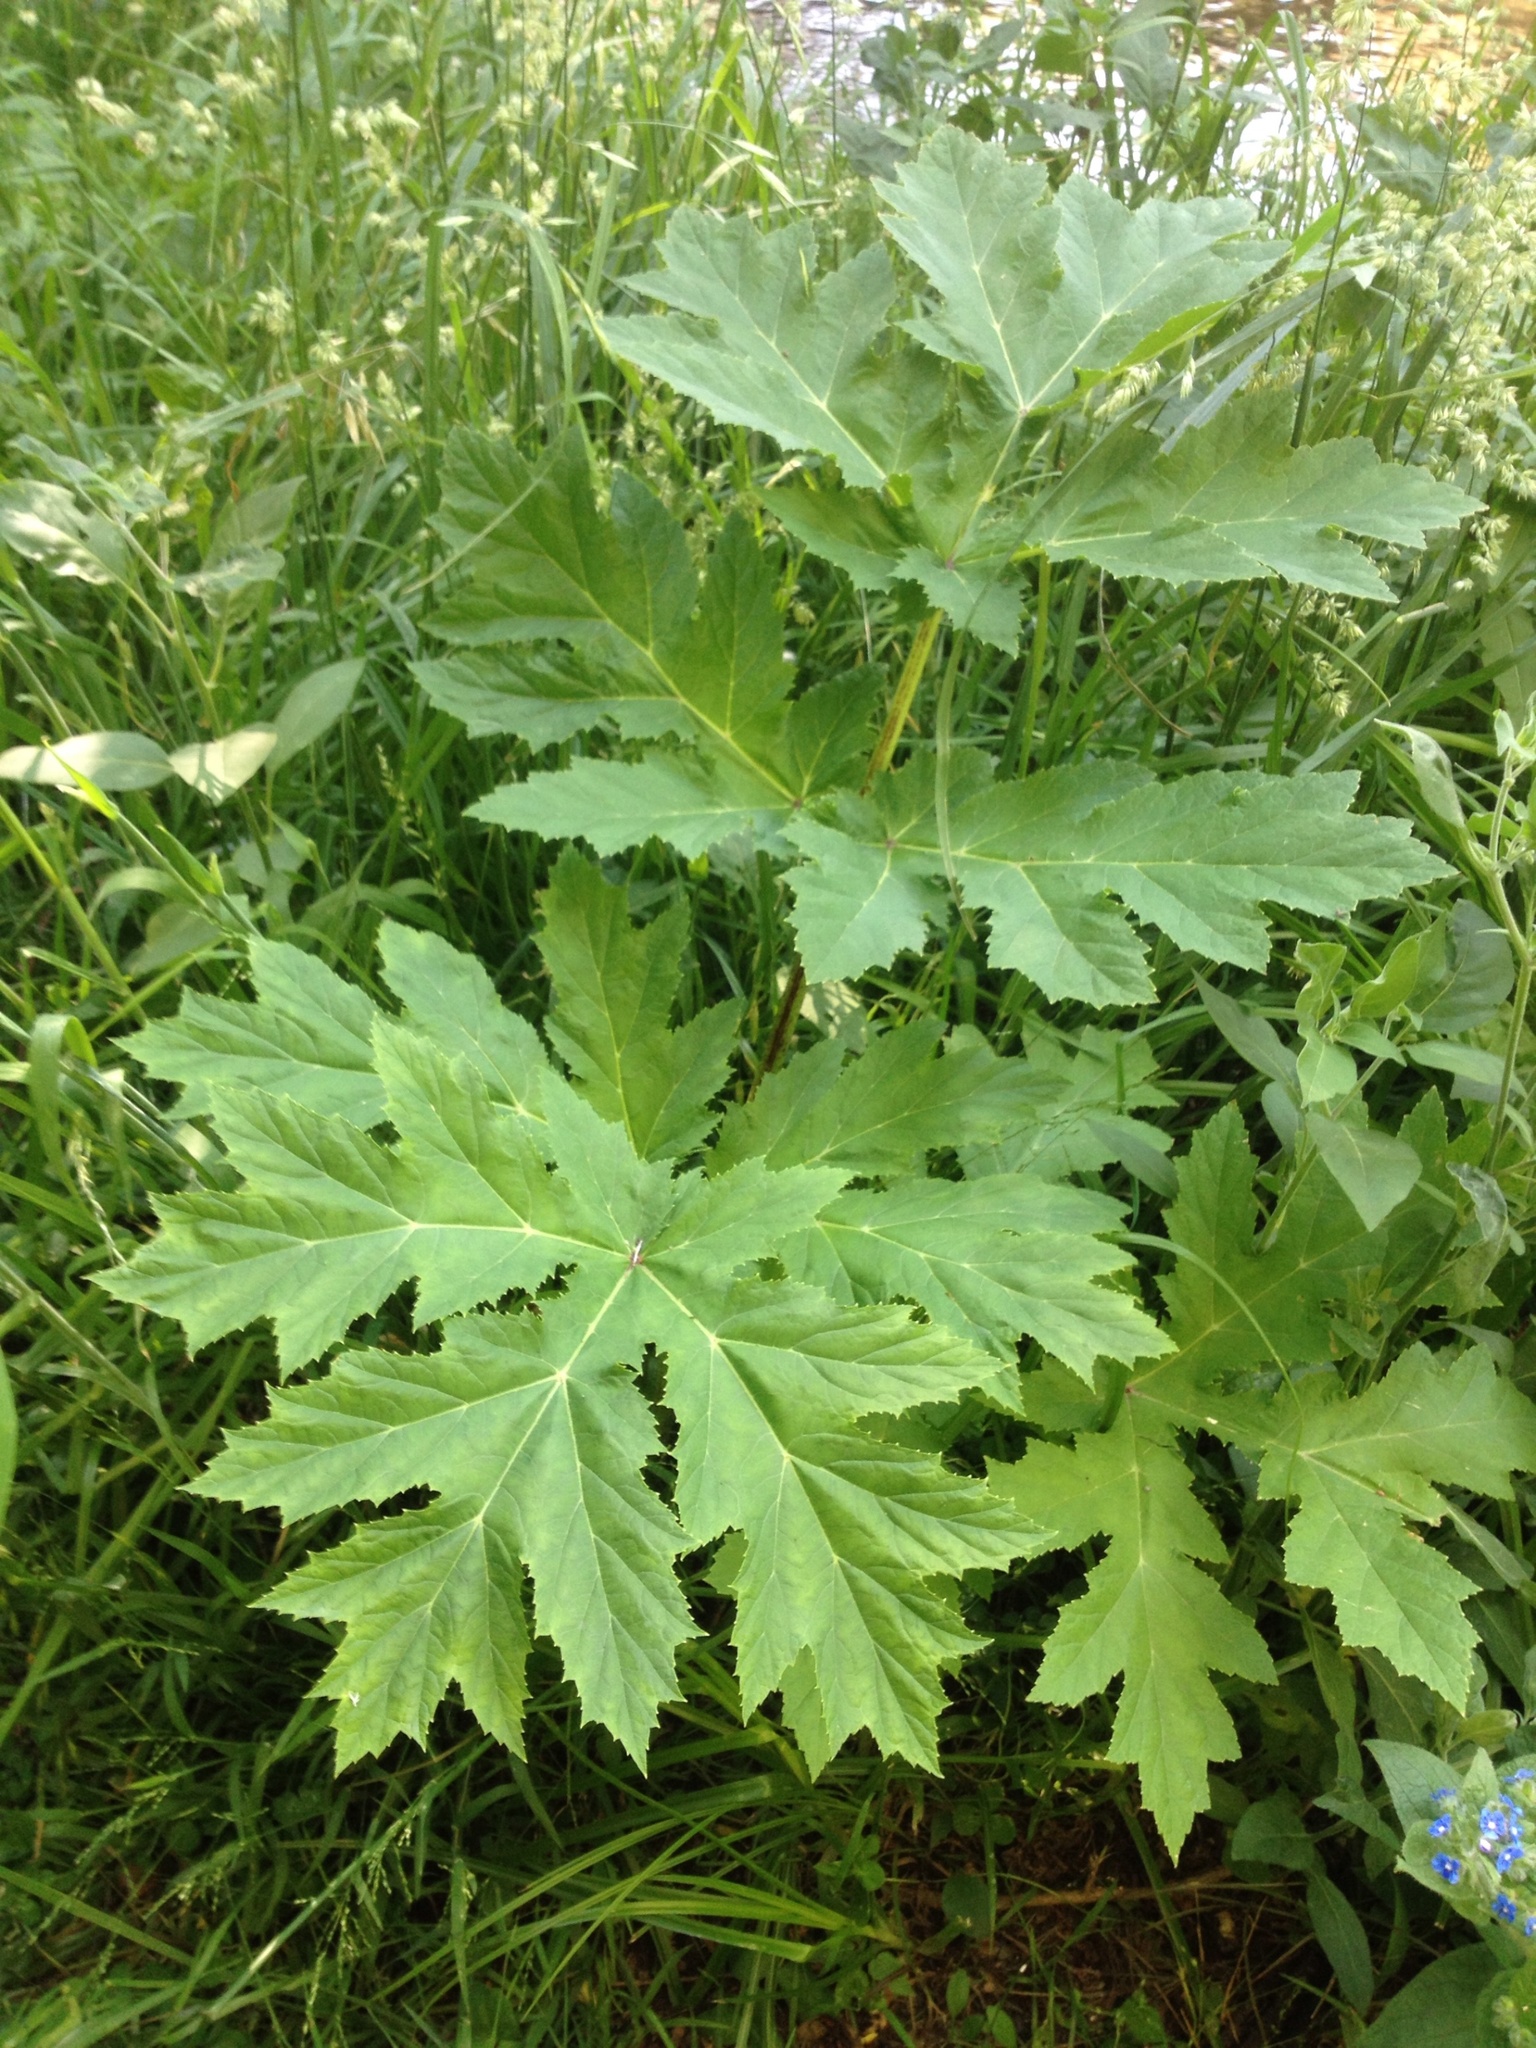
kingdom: Plantae
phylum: Tracheophyta
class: Magnoliopsida
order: Apiales
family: Apiaceae
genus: Heracleum
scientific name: Heracleum mantegazzianum
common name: Giant hogweed
